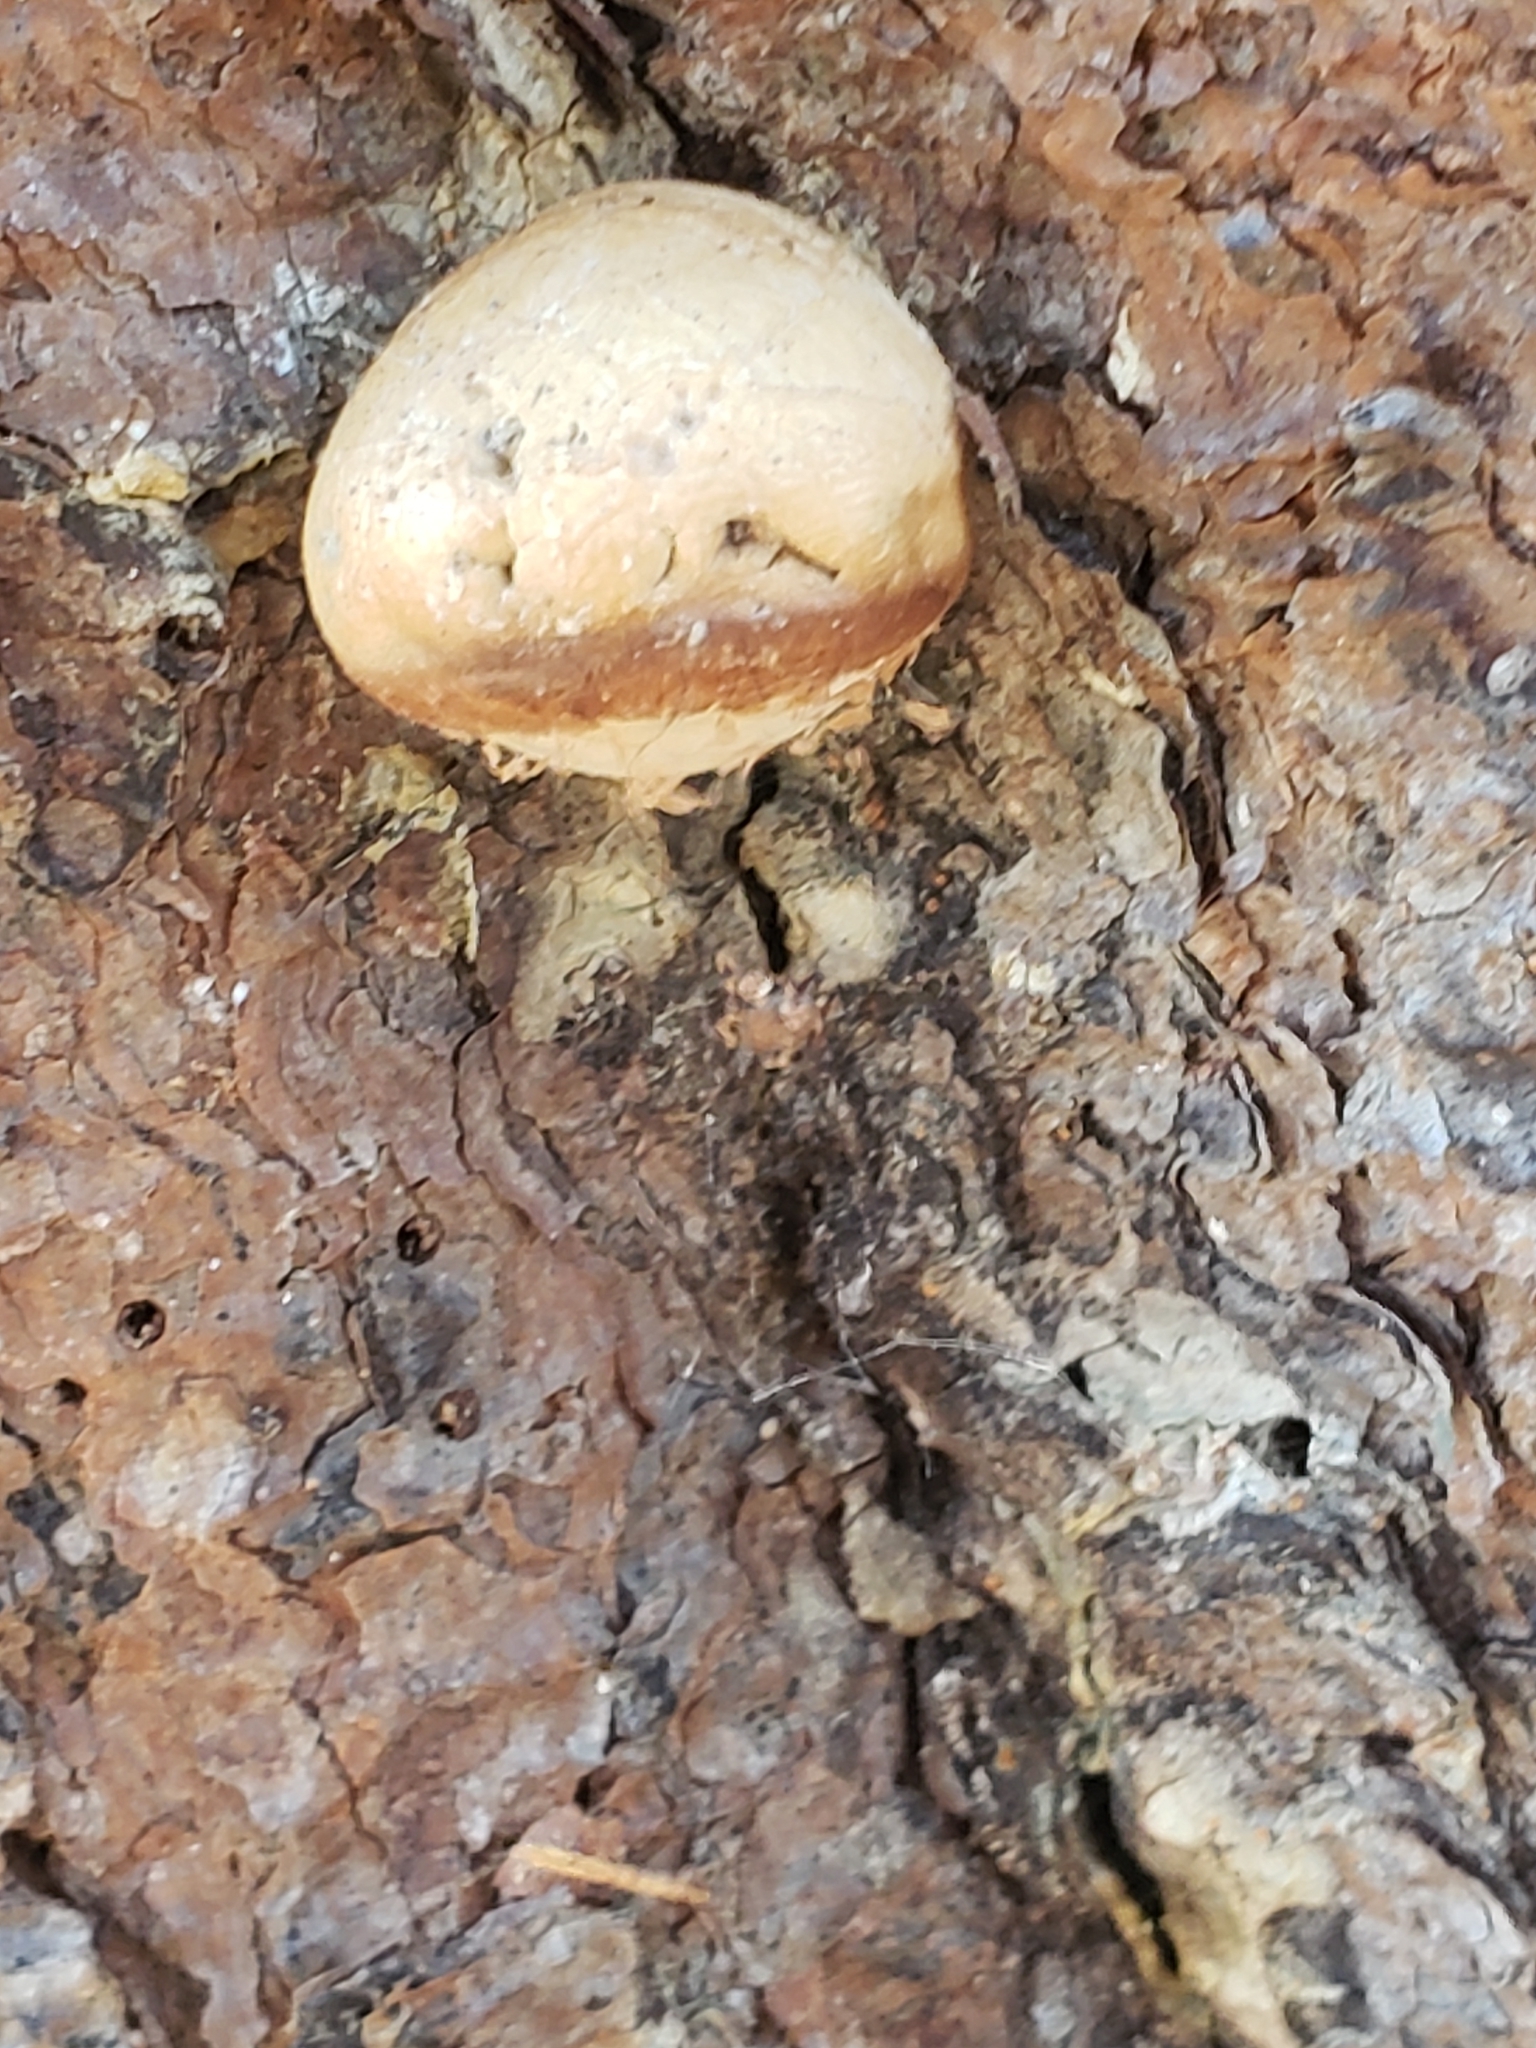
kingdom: Fungi
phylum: Basidiomycota
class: Agaricomycetes
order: Polyporales
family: Polyporaceae
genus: Cryptoporus
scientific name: Cryptoporus volvatus
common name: Veiled polypore
